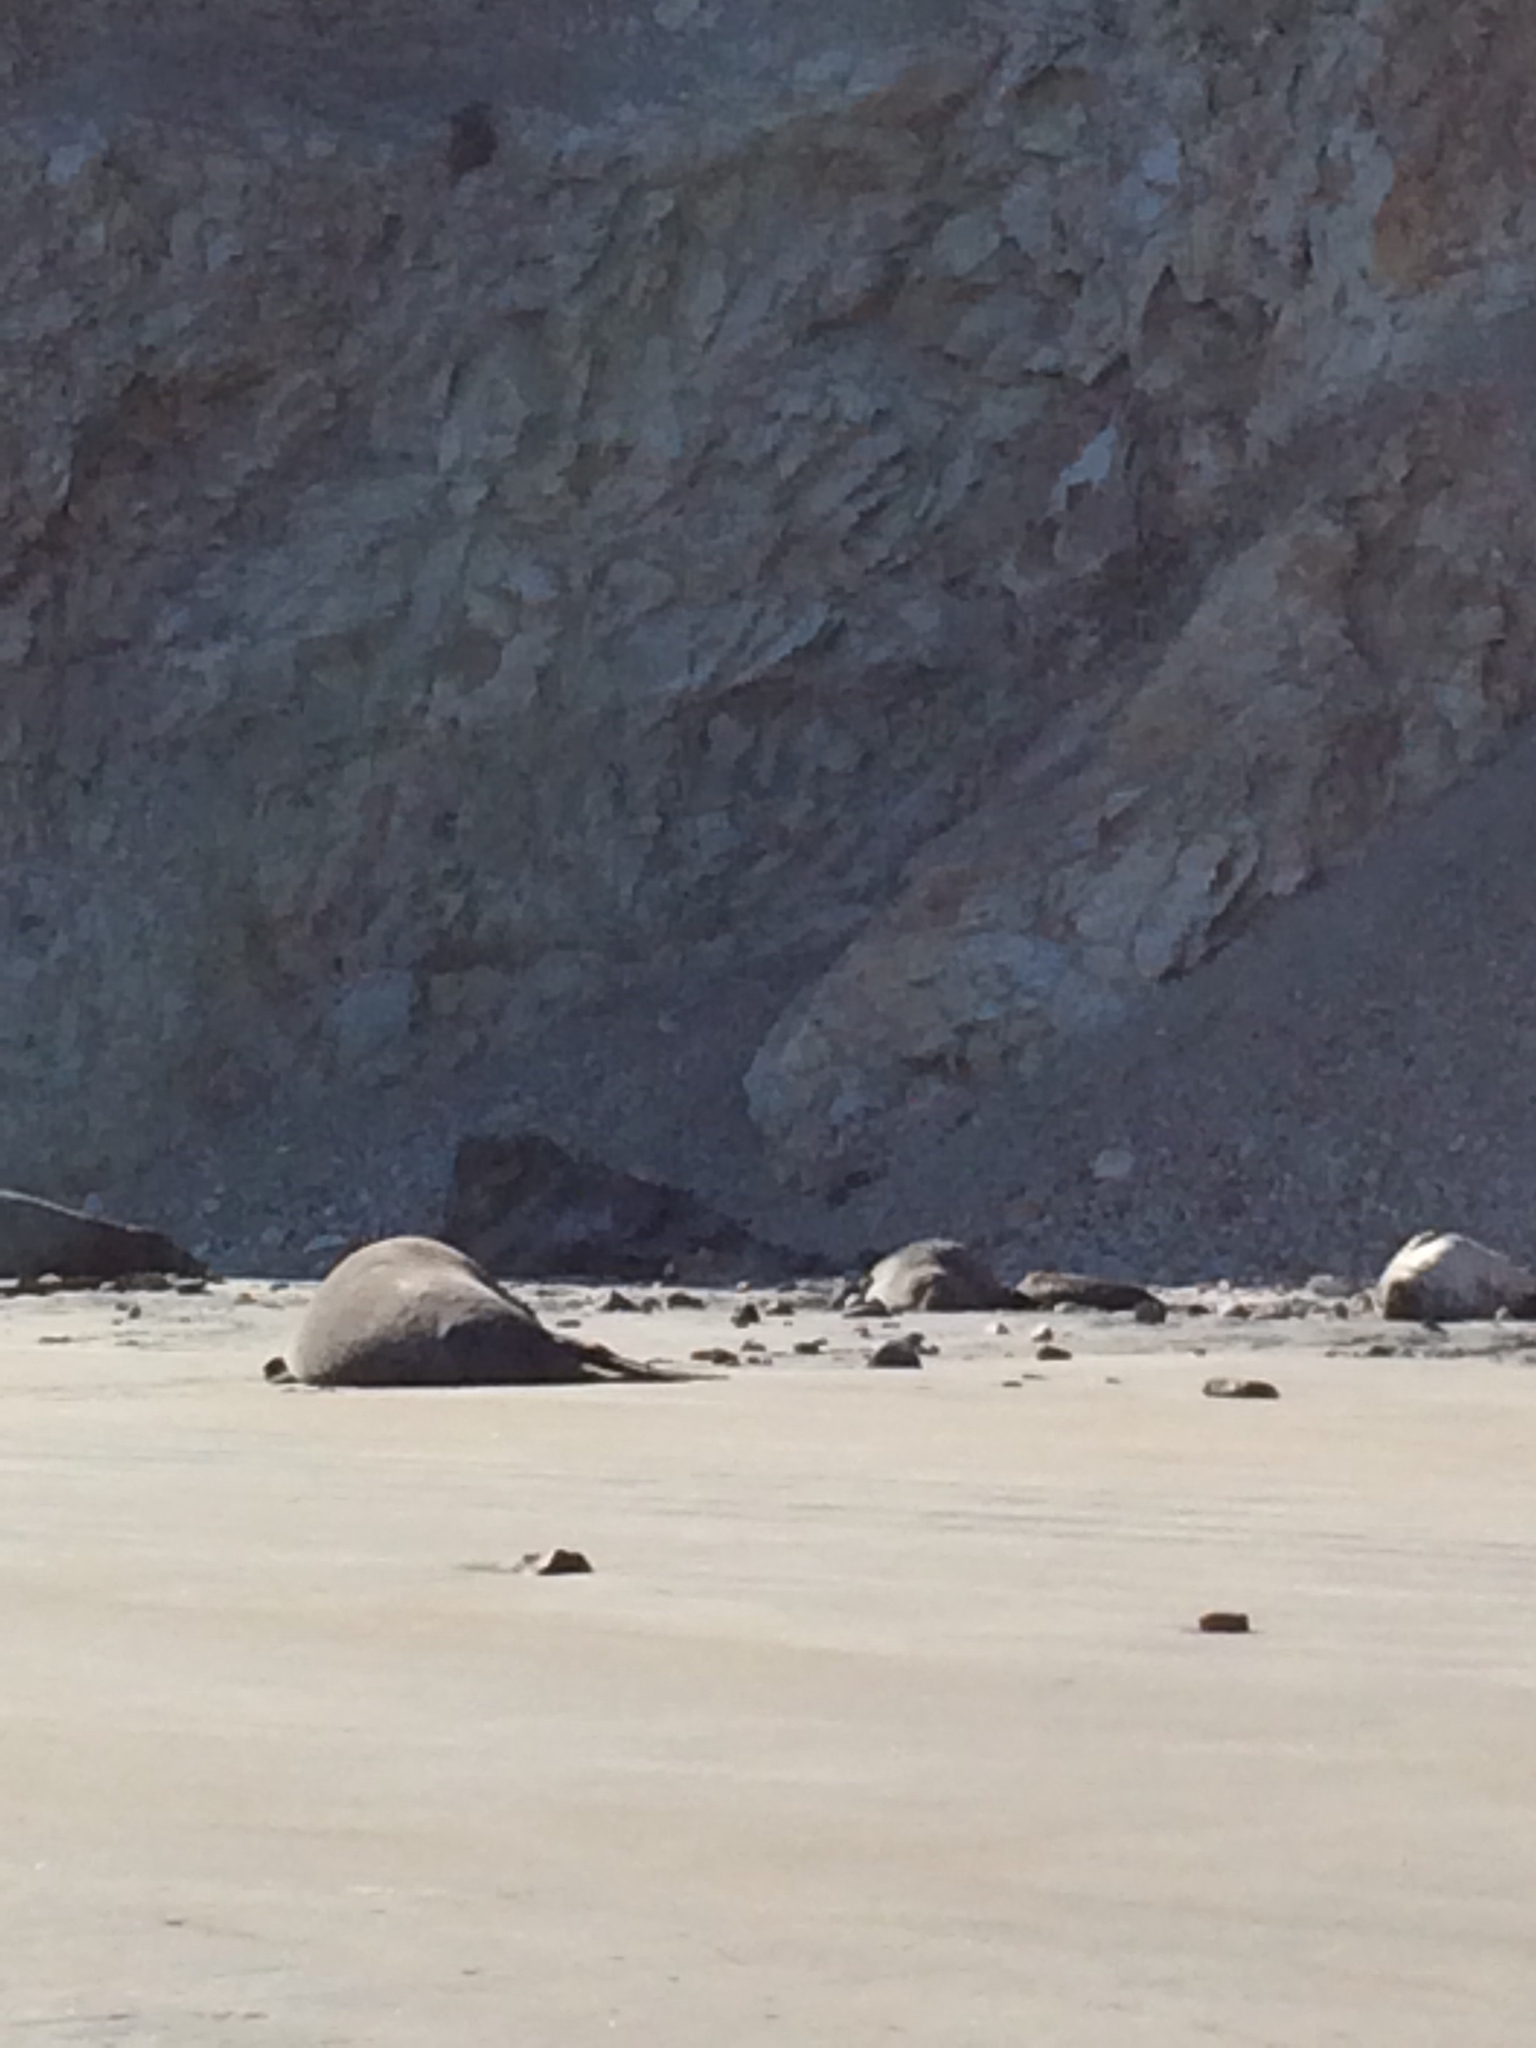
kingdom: Animalia
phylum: Chordata
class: Mammalia
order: Carnivora
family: Phocidae
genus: Mirounga
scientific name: Mirounga angustirostris
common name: Northern elephant seal
